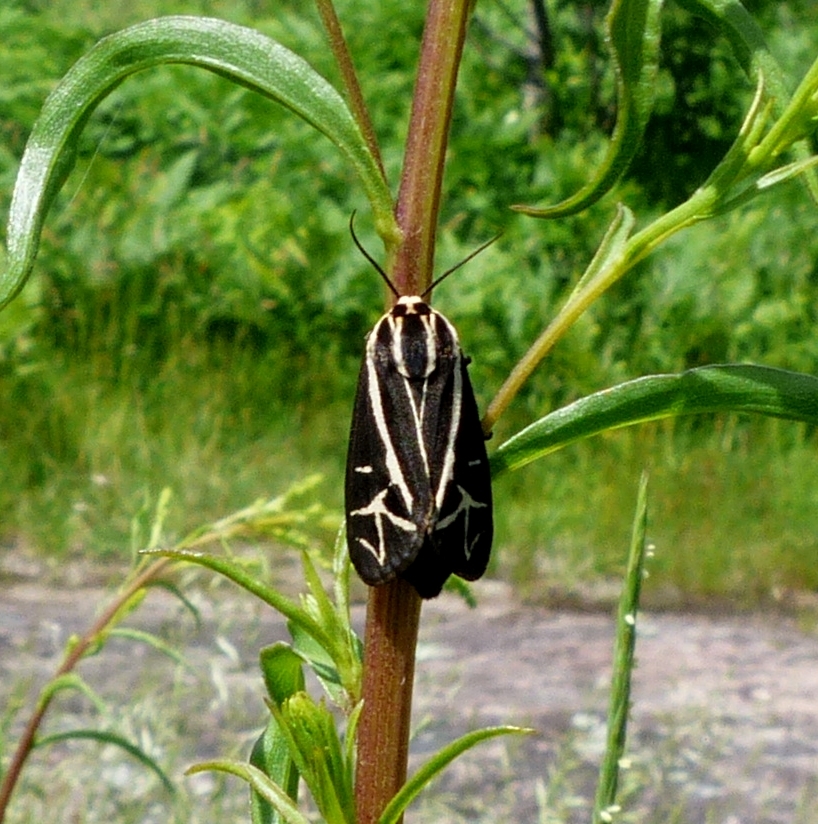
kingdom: Animalia
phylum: Arthropoda
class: Insecta
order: Lepidoptera
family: Erebidae
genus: Apantesis
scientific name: Apantesis
